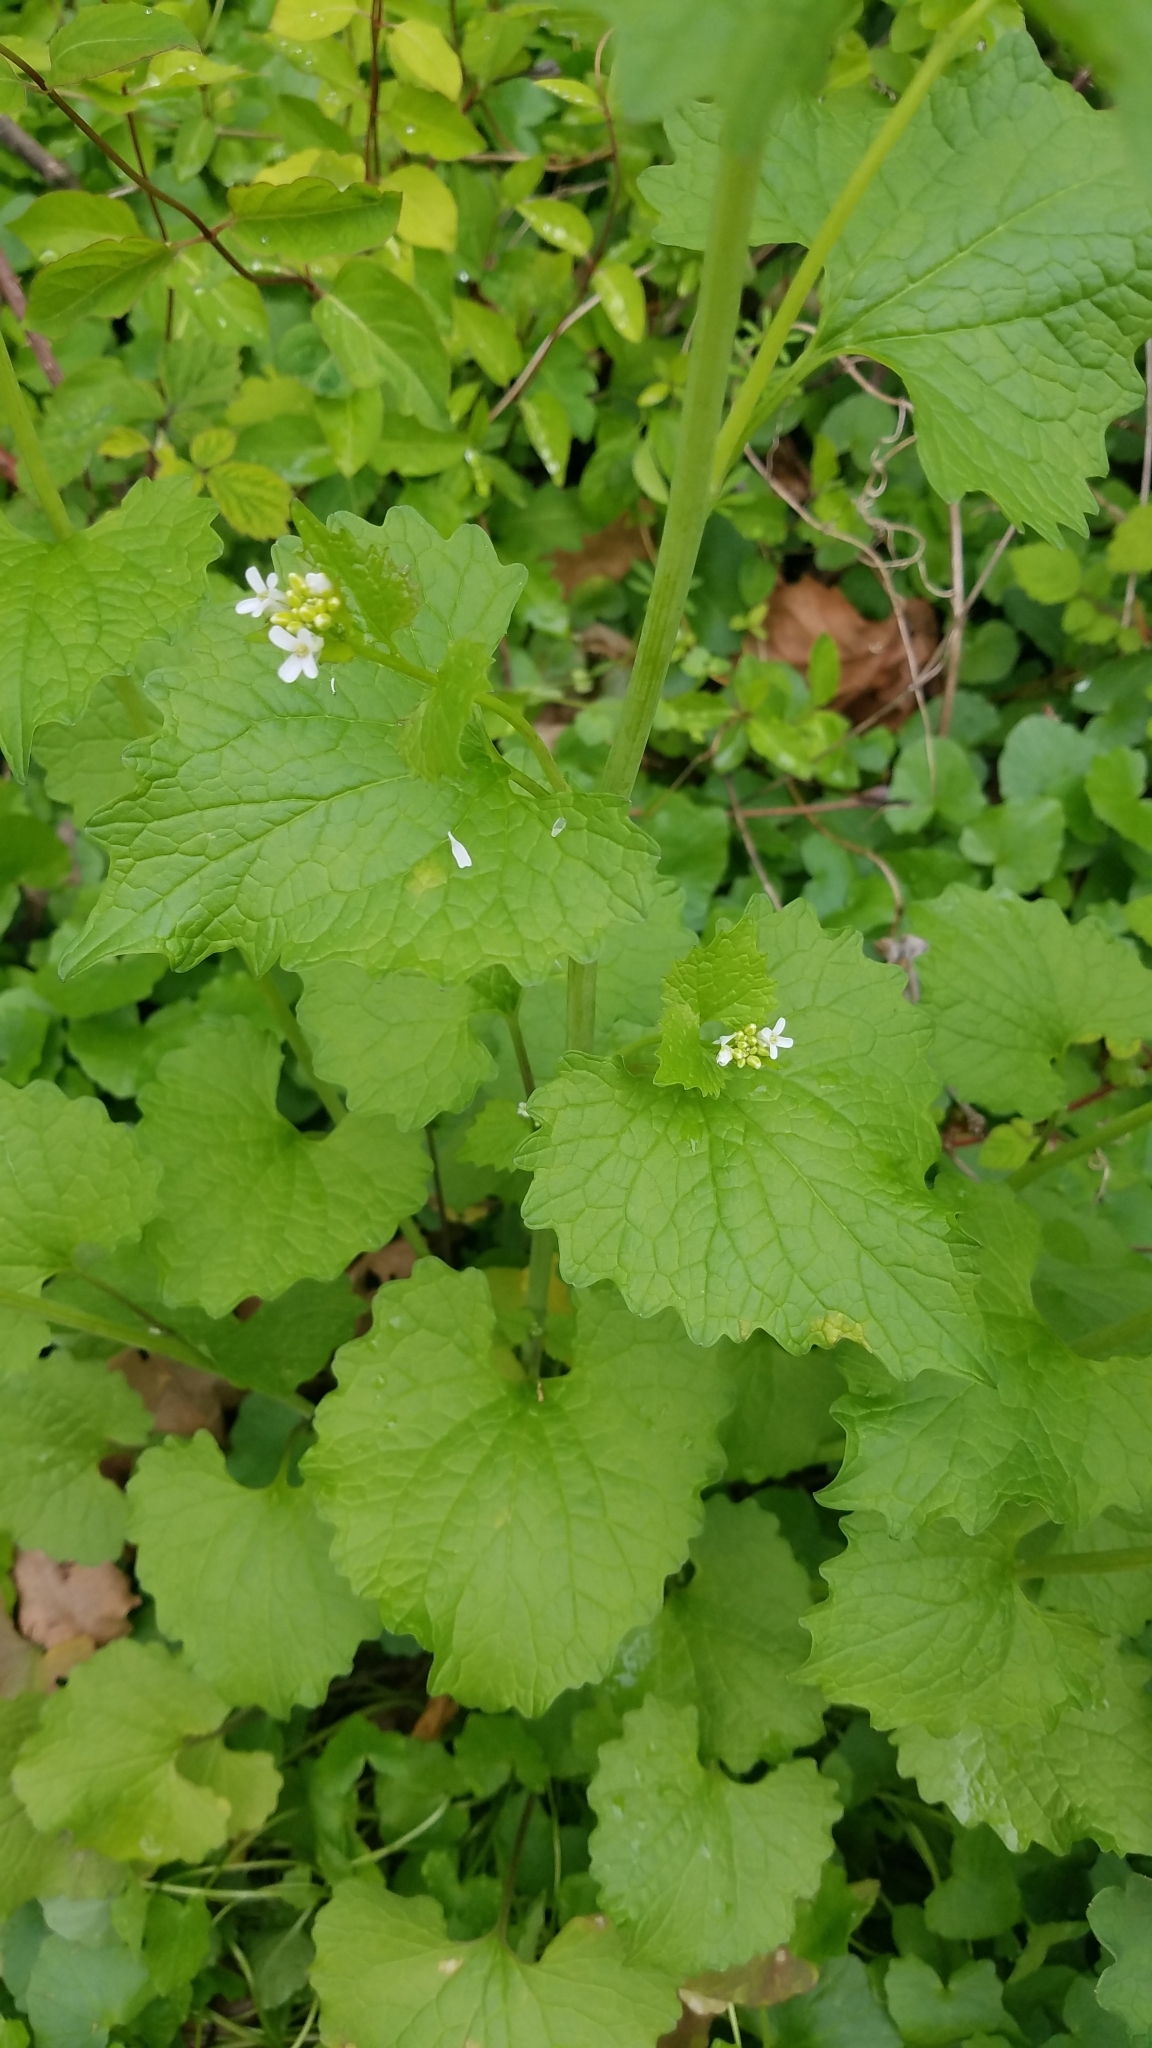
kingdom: Plantae
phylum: Tracheophyta
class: Magnoliopsida
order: Brassicales
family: Brassicaceae
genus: Alliaria
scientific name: Alliaria petiolata
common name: Garlic mustard
